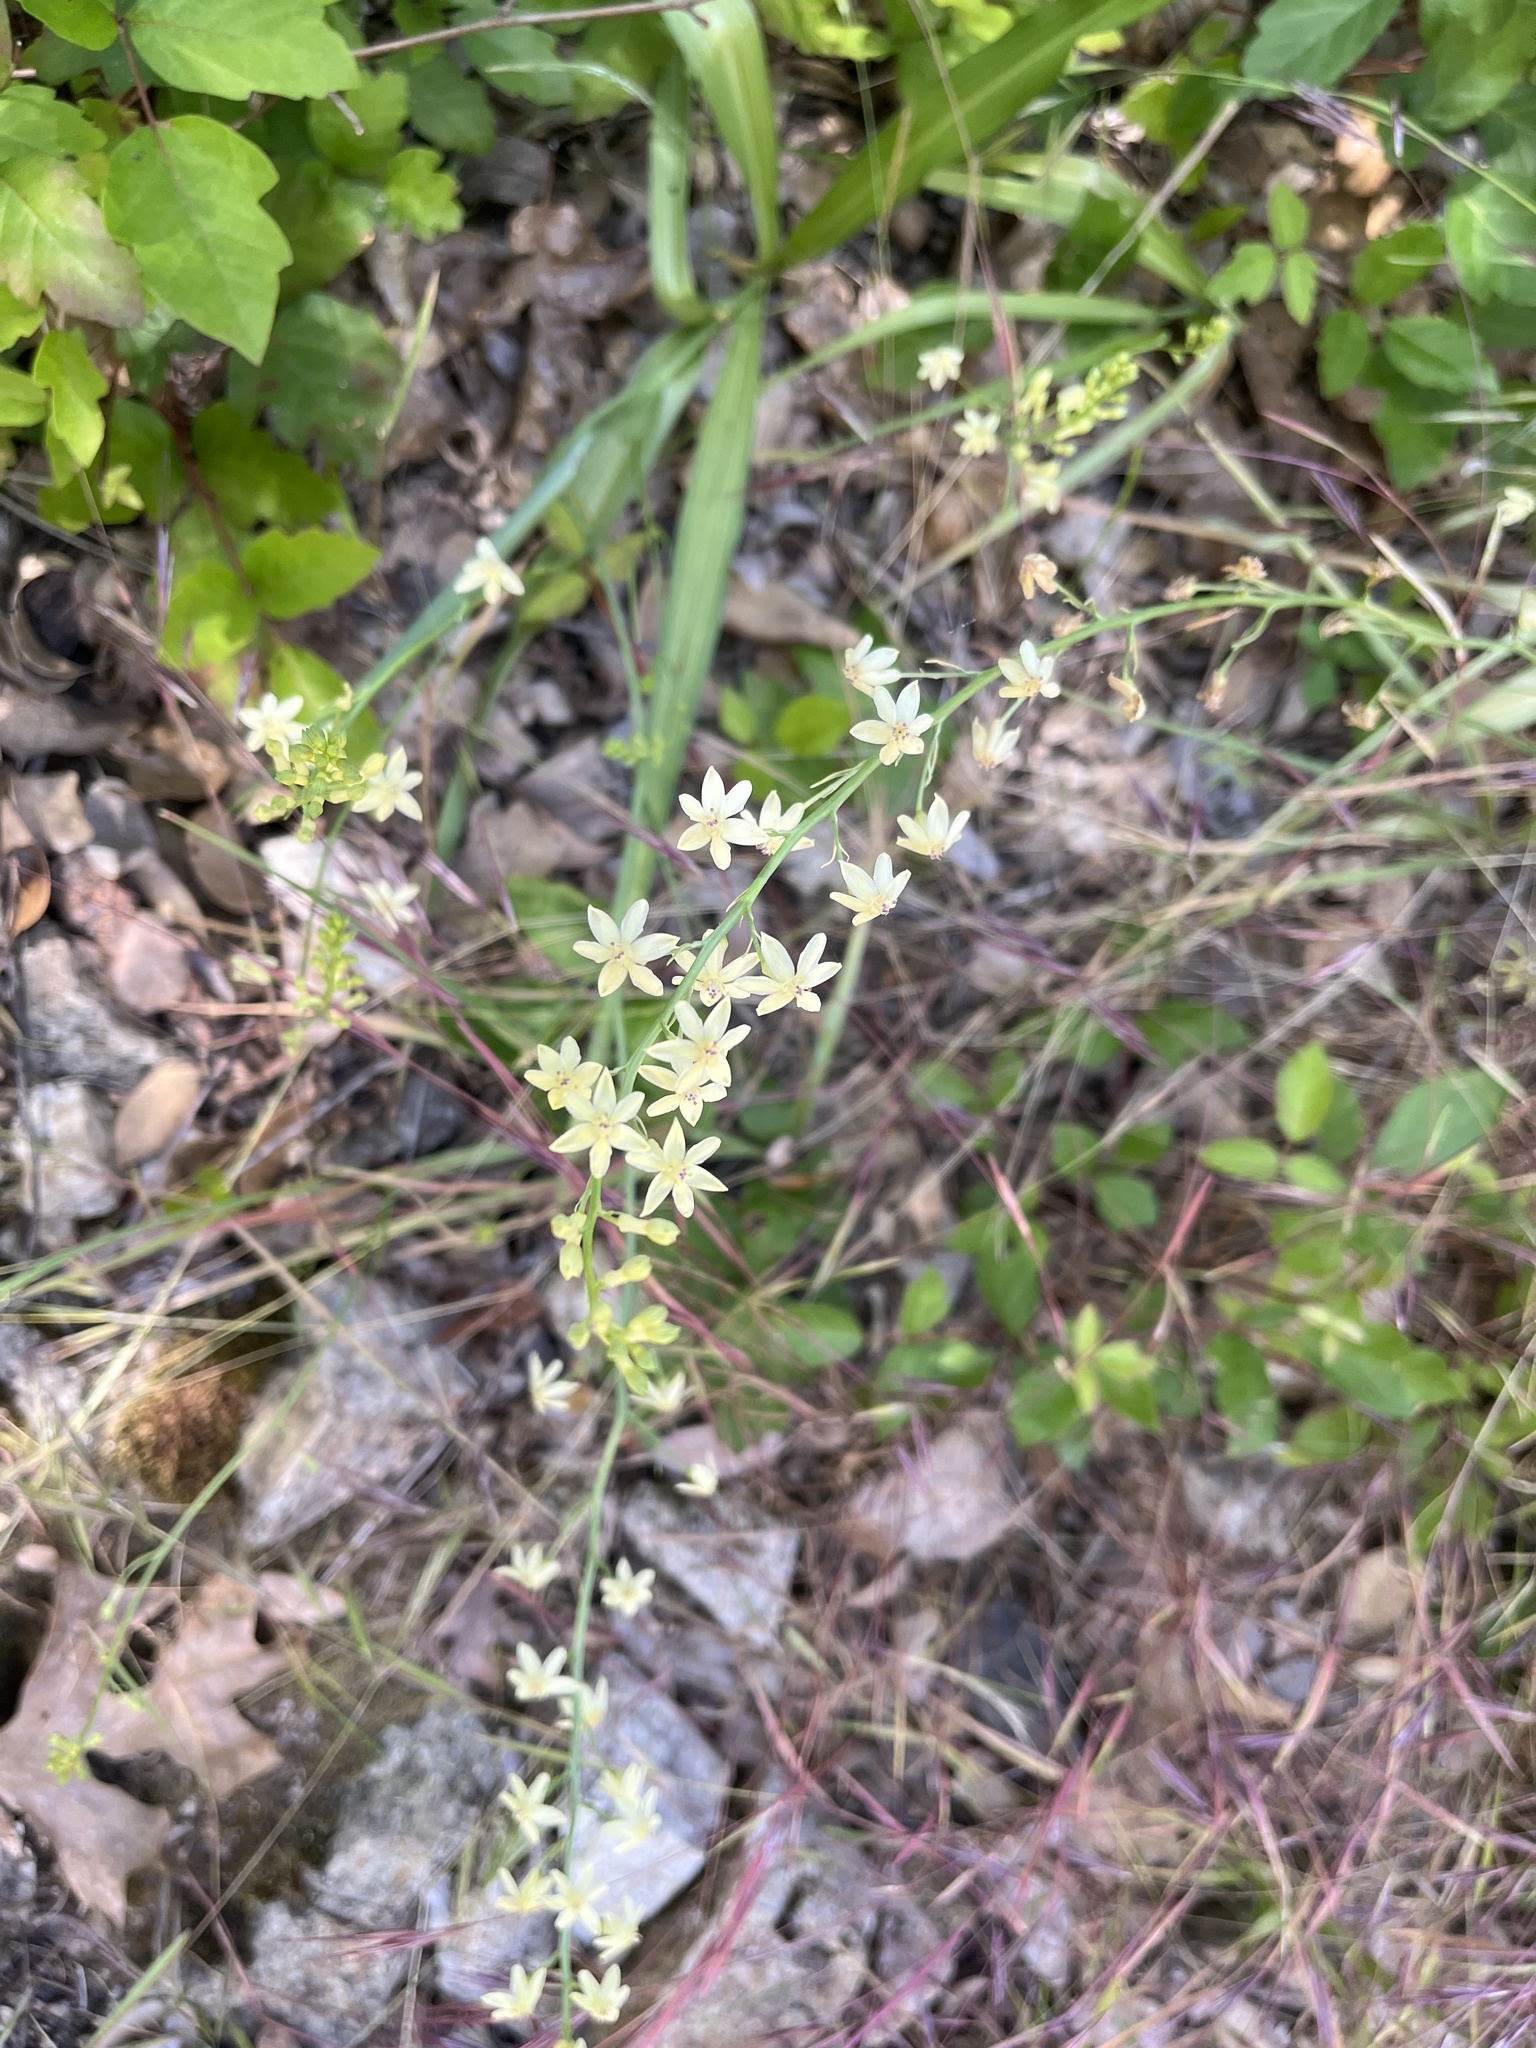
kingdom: Plantae
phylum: Tracheophyta
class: Liliopsida
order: Asparagales
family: Tecophilaeaceae
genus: Odontostomum
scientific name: Odontostomum hartwegii
